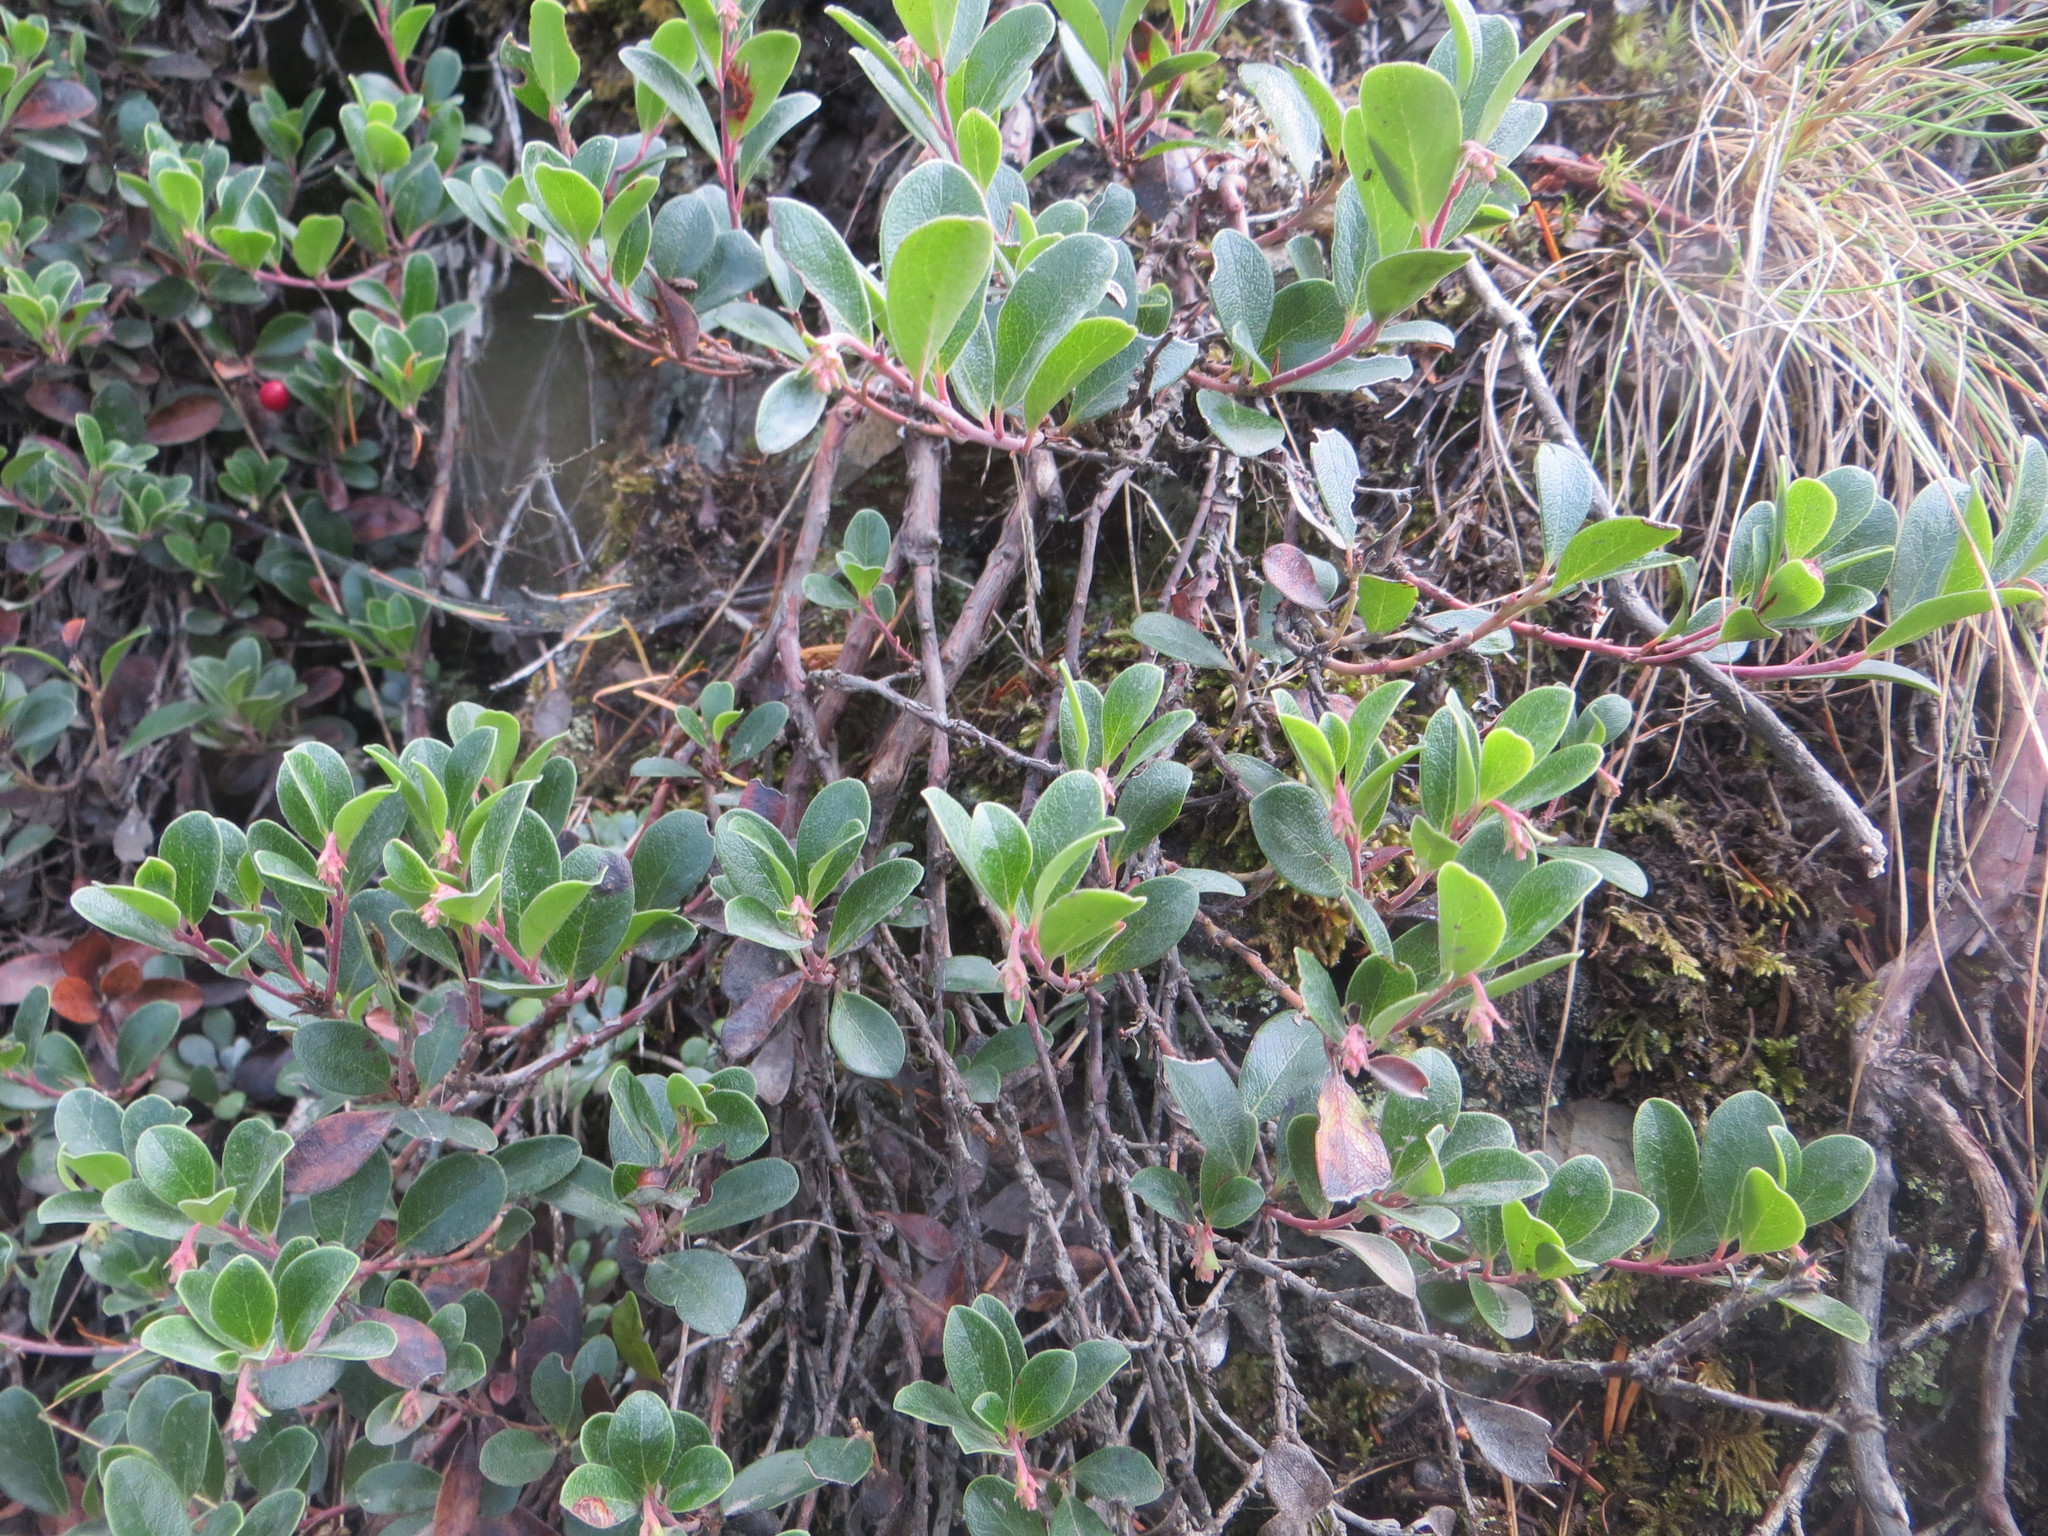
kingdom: Plantae
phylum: Tracheophyta
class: Magnoliopsida
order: Ericales
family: Ericaceae
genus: Arctostaphylos
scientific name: Arctostaphylos uva-ursi
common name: Bearberry
